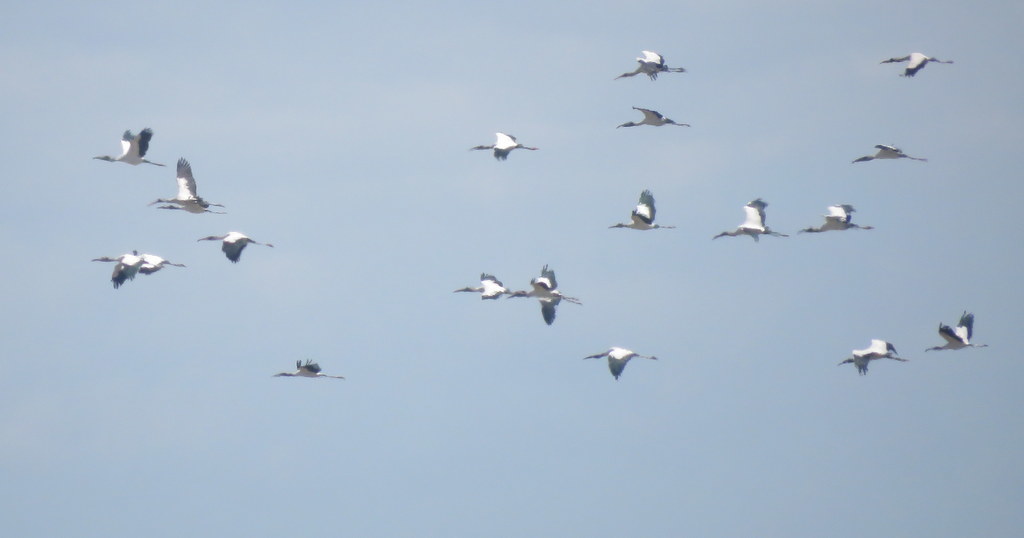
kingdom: Animalia
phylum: Chordata
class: Aves
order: Ciconiiformes
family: Ciconiidae
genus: Mycteria
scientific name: Mycteria americana
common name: Wood stork
